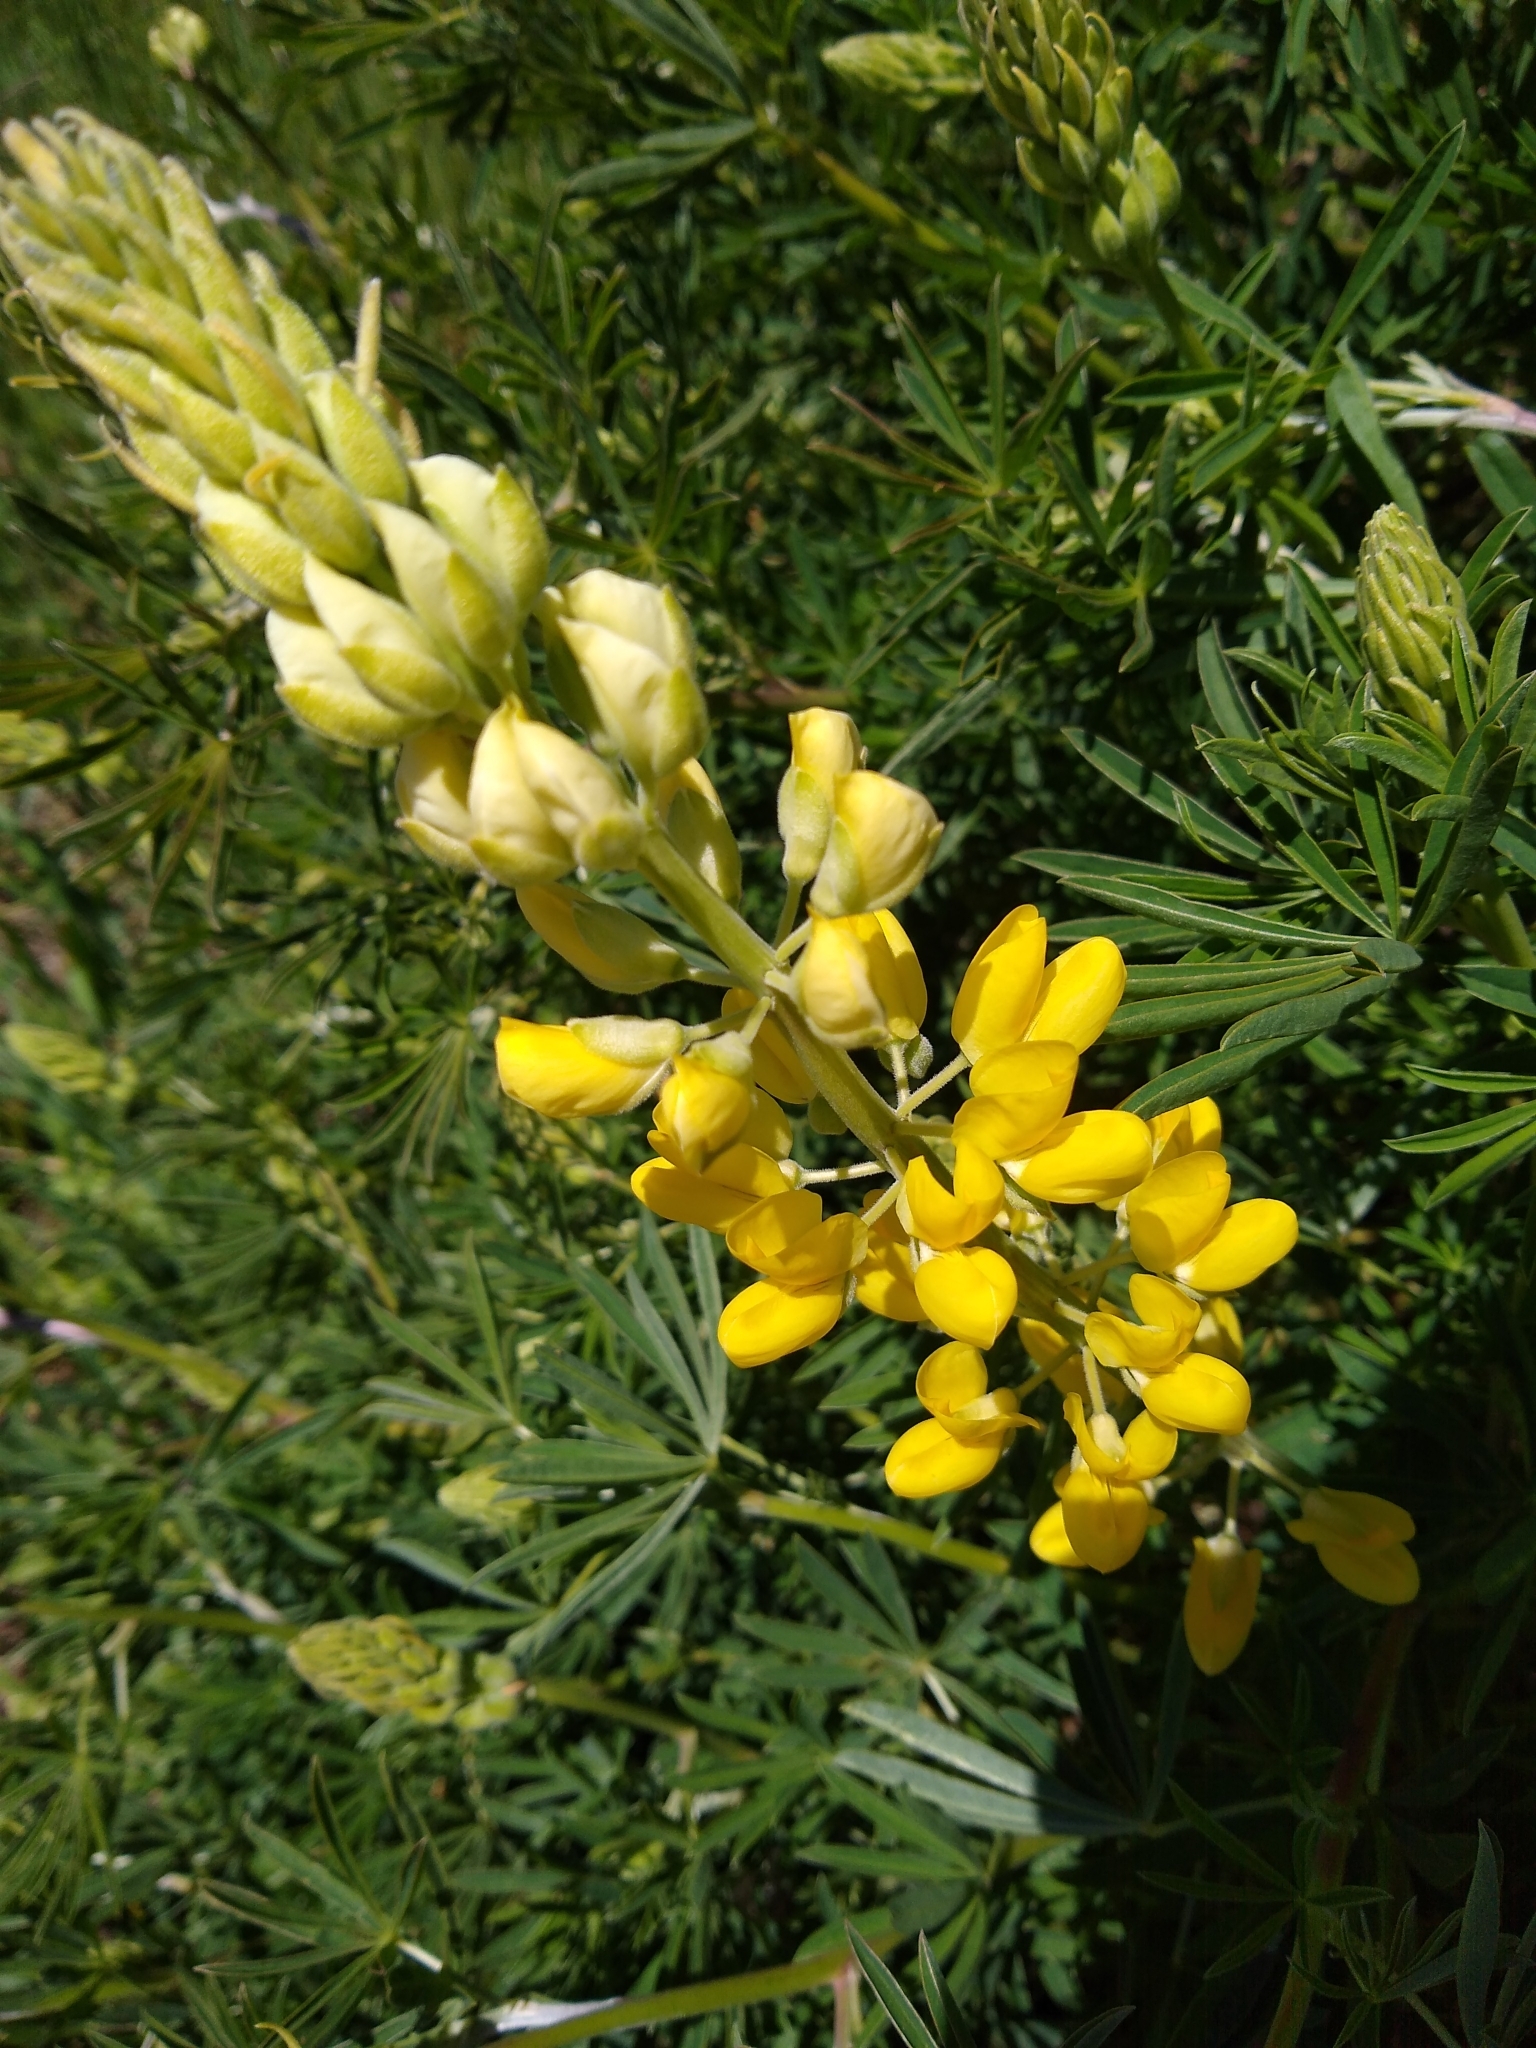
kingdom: Plantae
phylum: Tracheophyta
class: Magnoliopsida
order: Fabales
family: Fabaceae
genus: Lupinus
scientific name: Lupinus arboreus
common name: Yellow bush lupine
